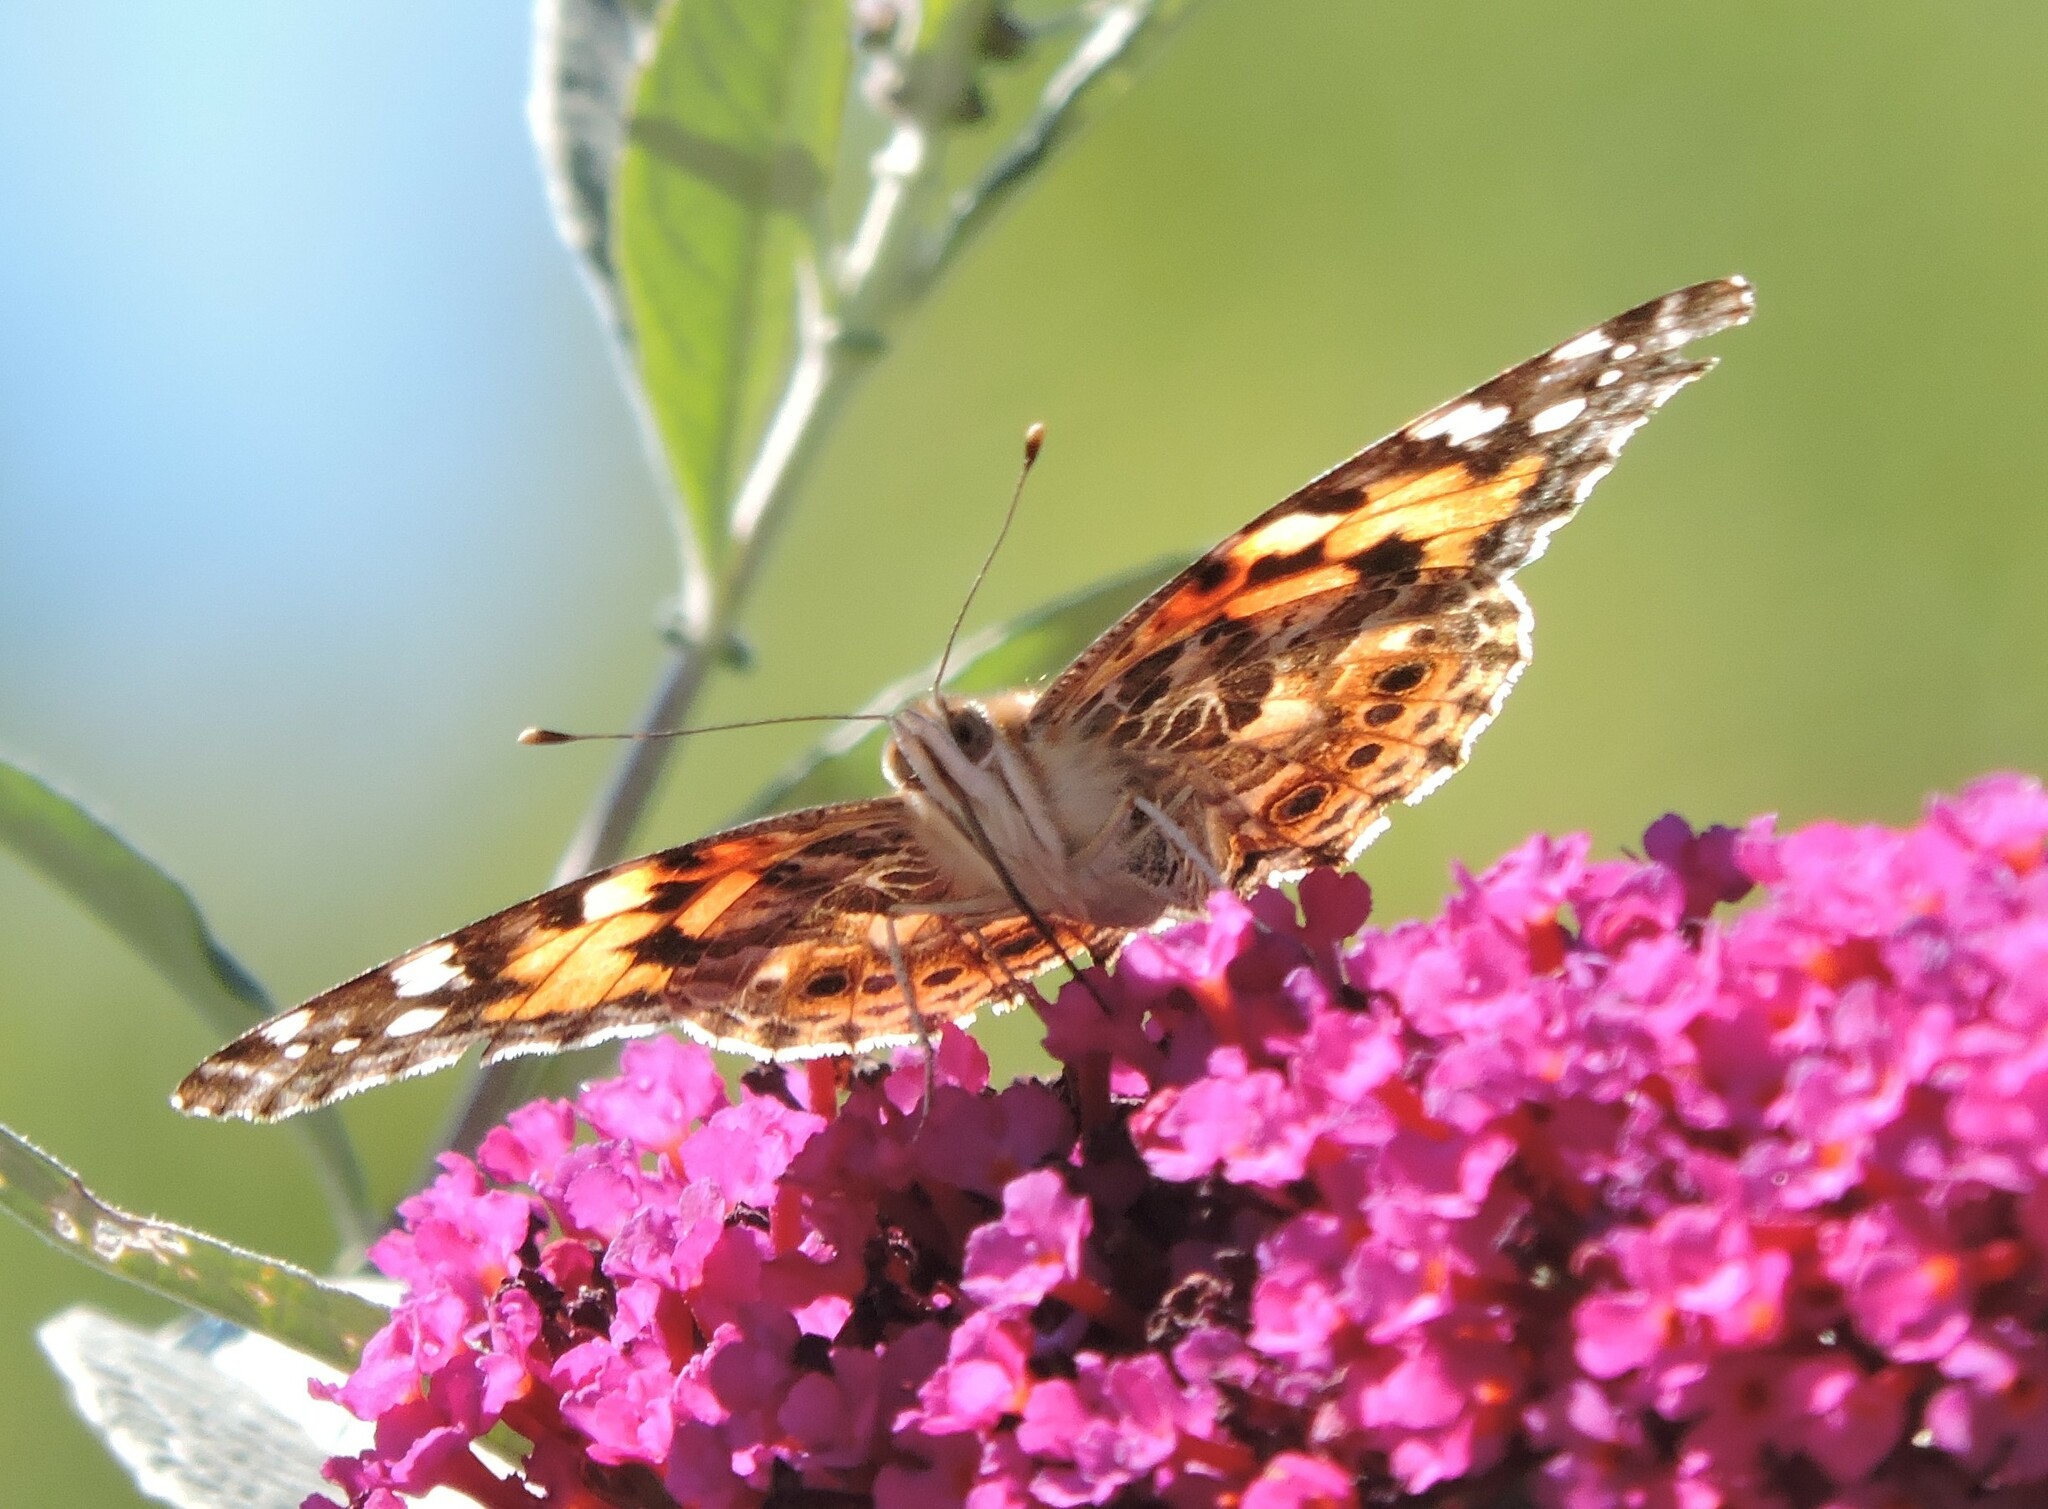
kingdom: Animalia
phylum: Arthropoda
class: Insecta
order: Lepidoptera
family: Nymphalidae
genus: Vanessa
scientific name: Vanessa cardui
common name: Painted lady
